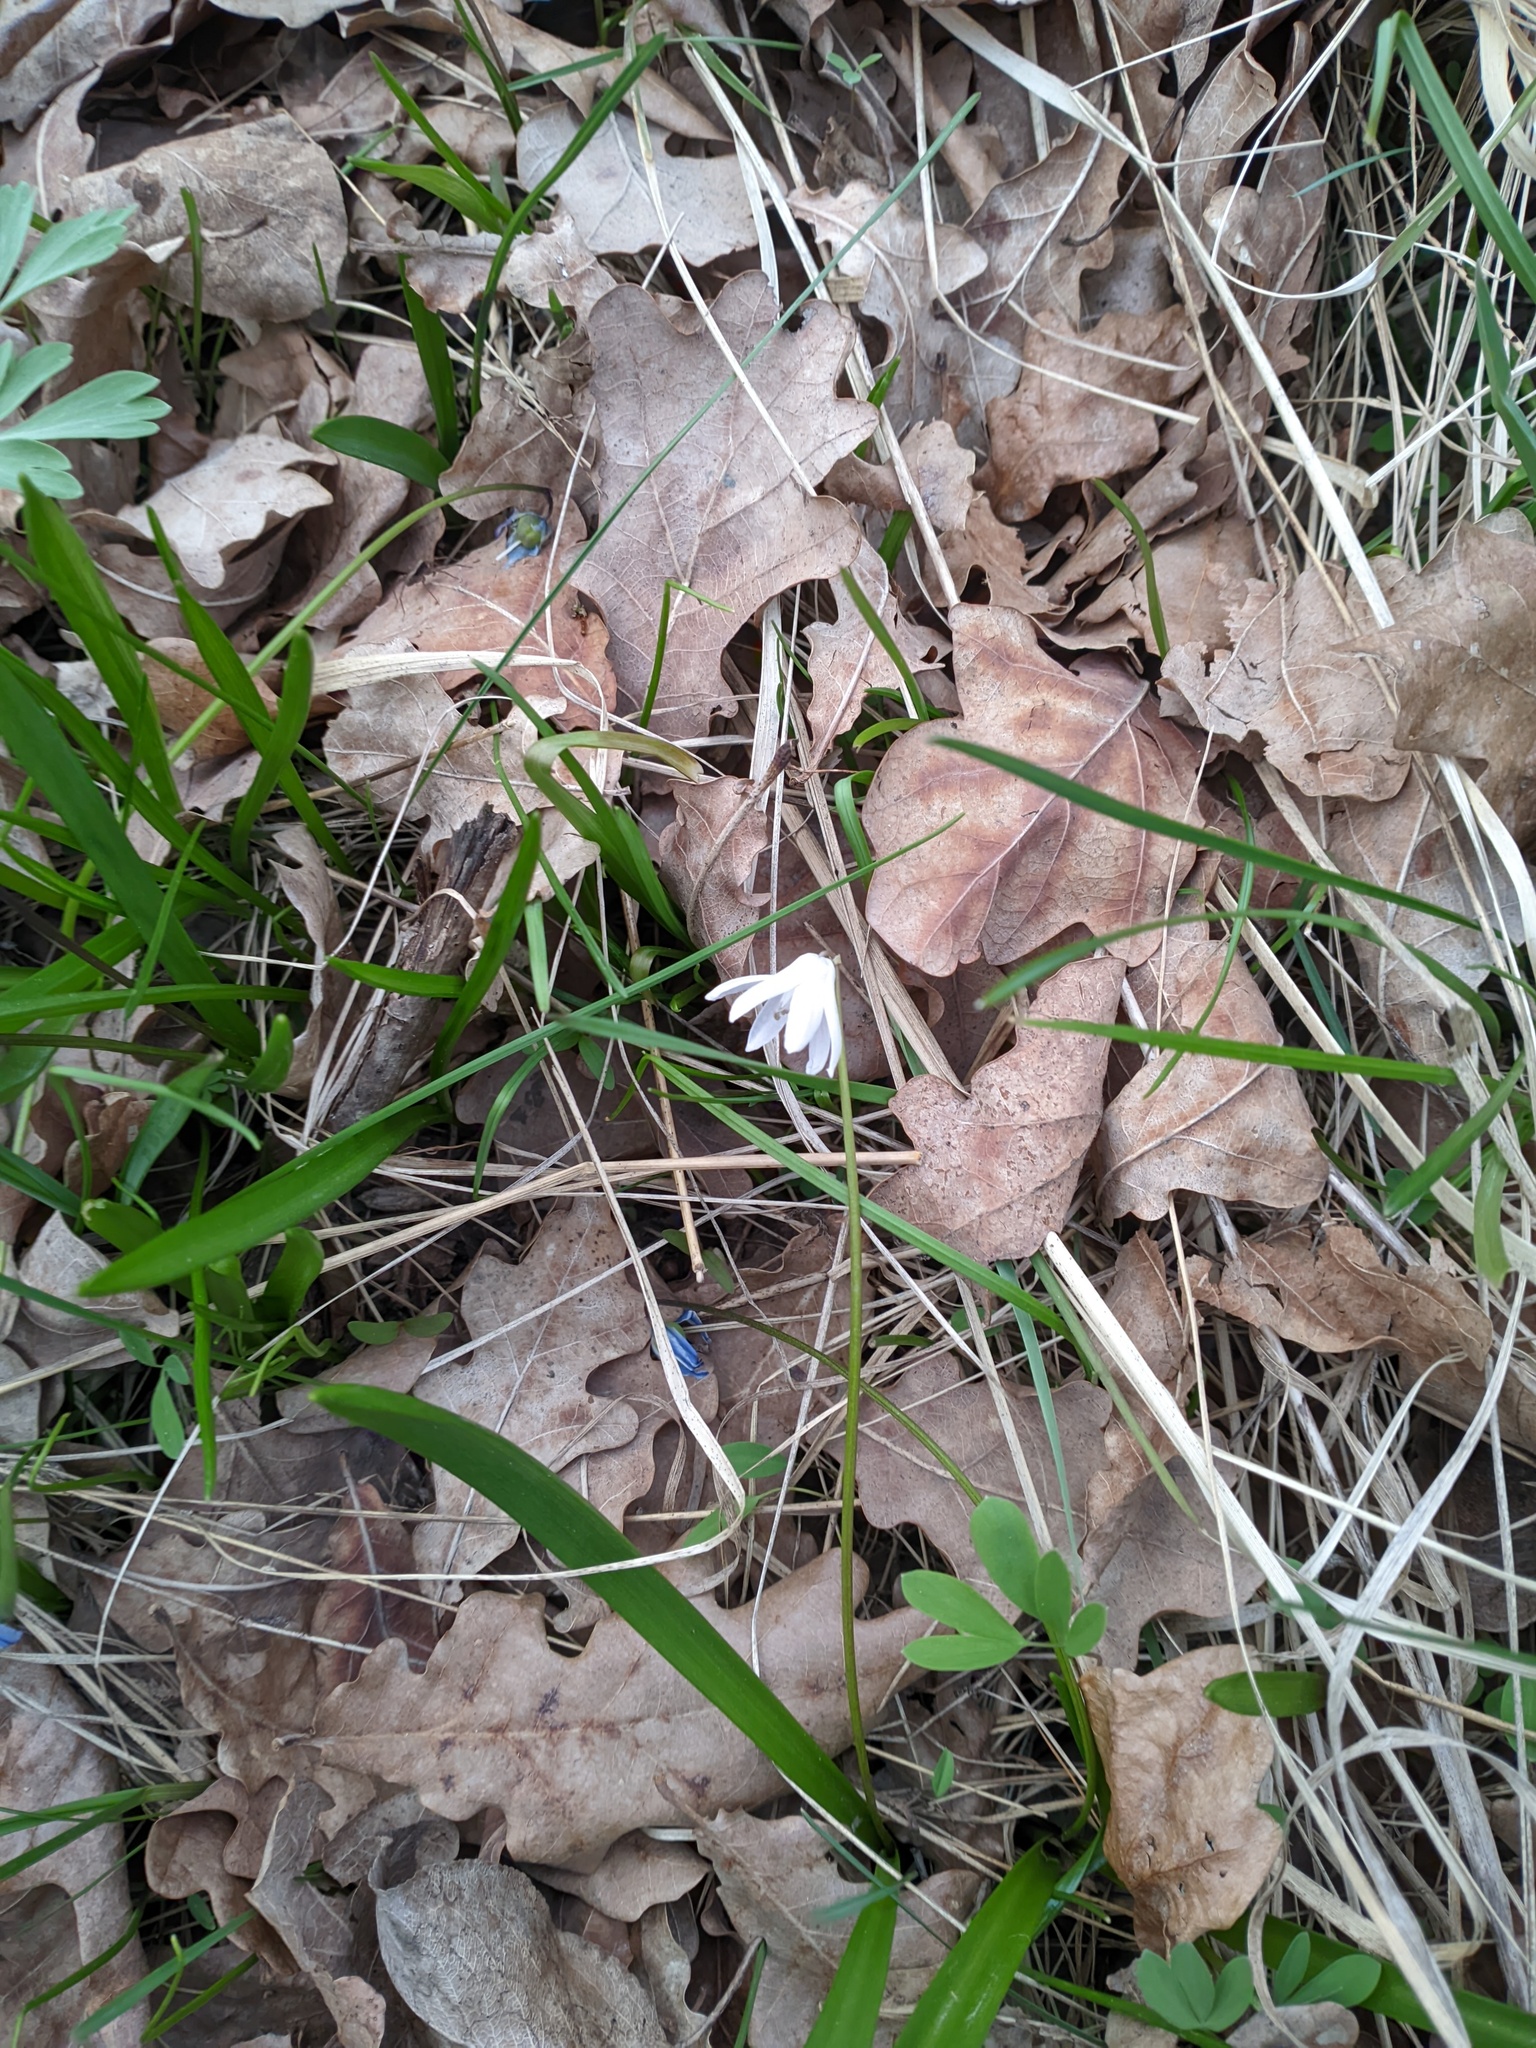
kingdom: Plantae
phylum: Tracheophyta
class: Liliopsida
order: Asparagales
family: Asparagaceae
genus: Scilla
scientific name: Scilla siberica
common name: Siberian squill
